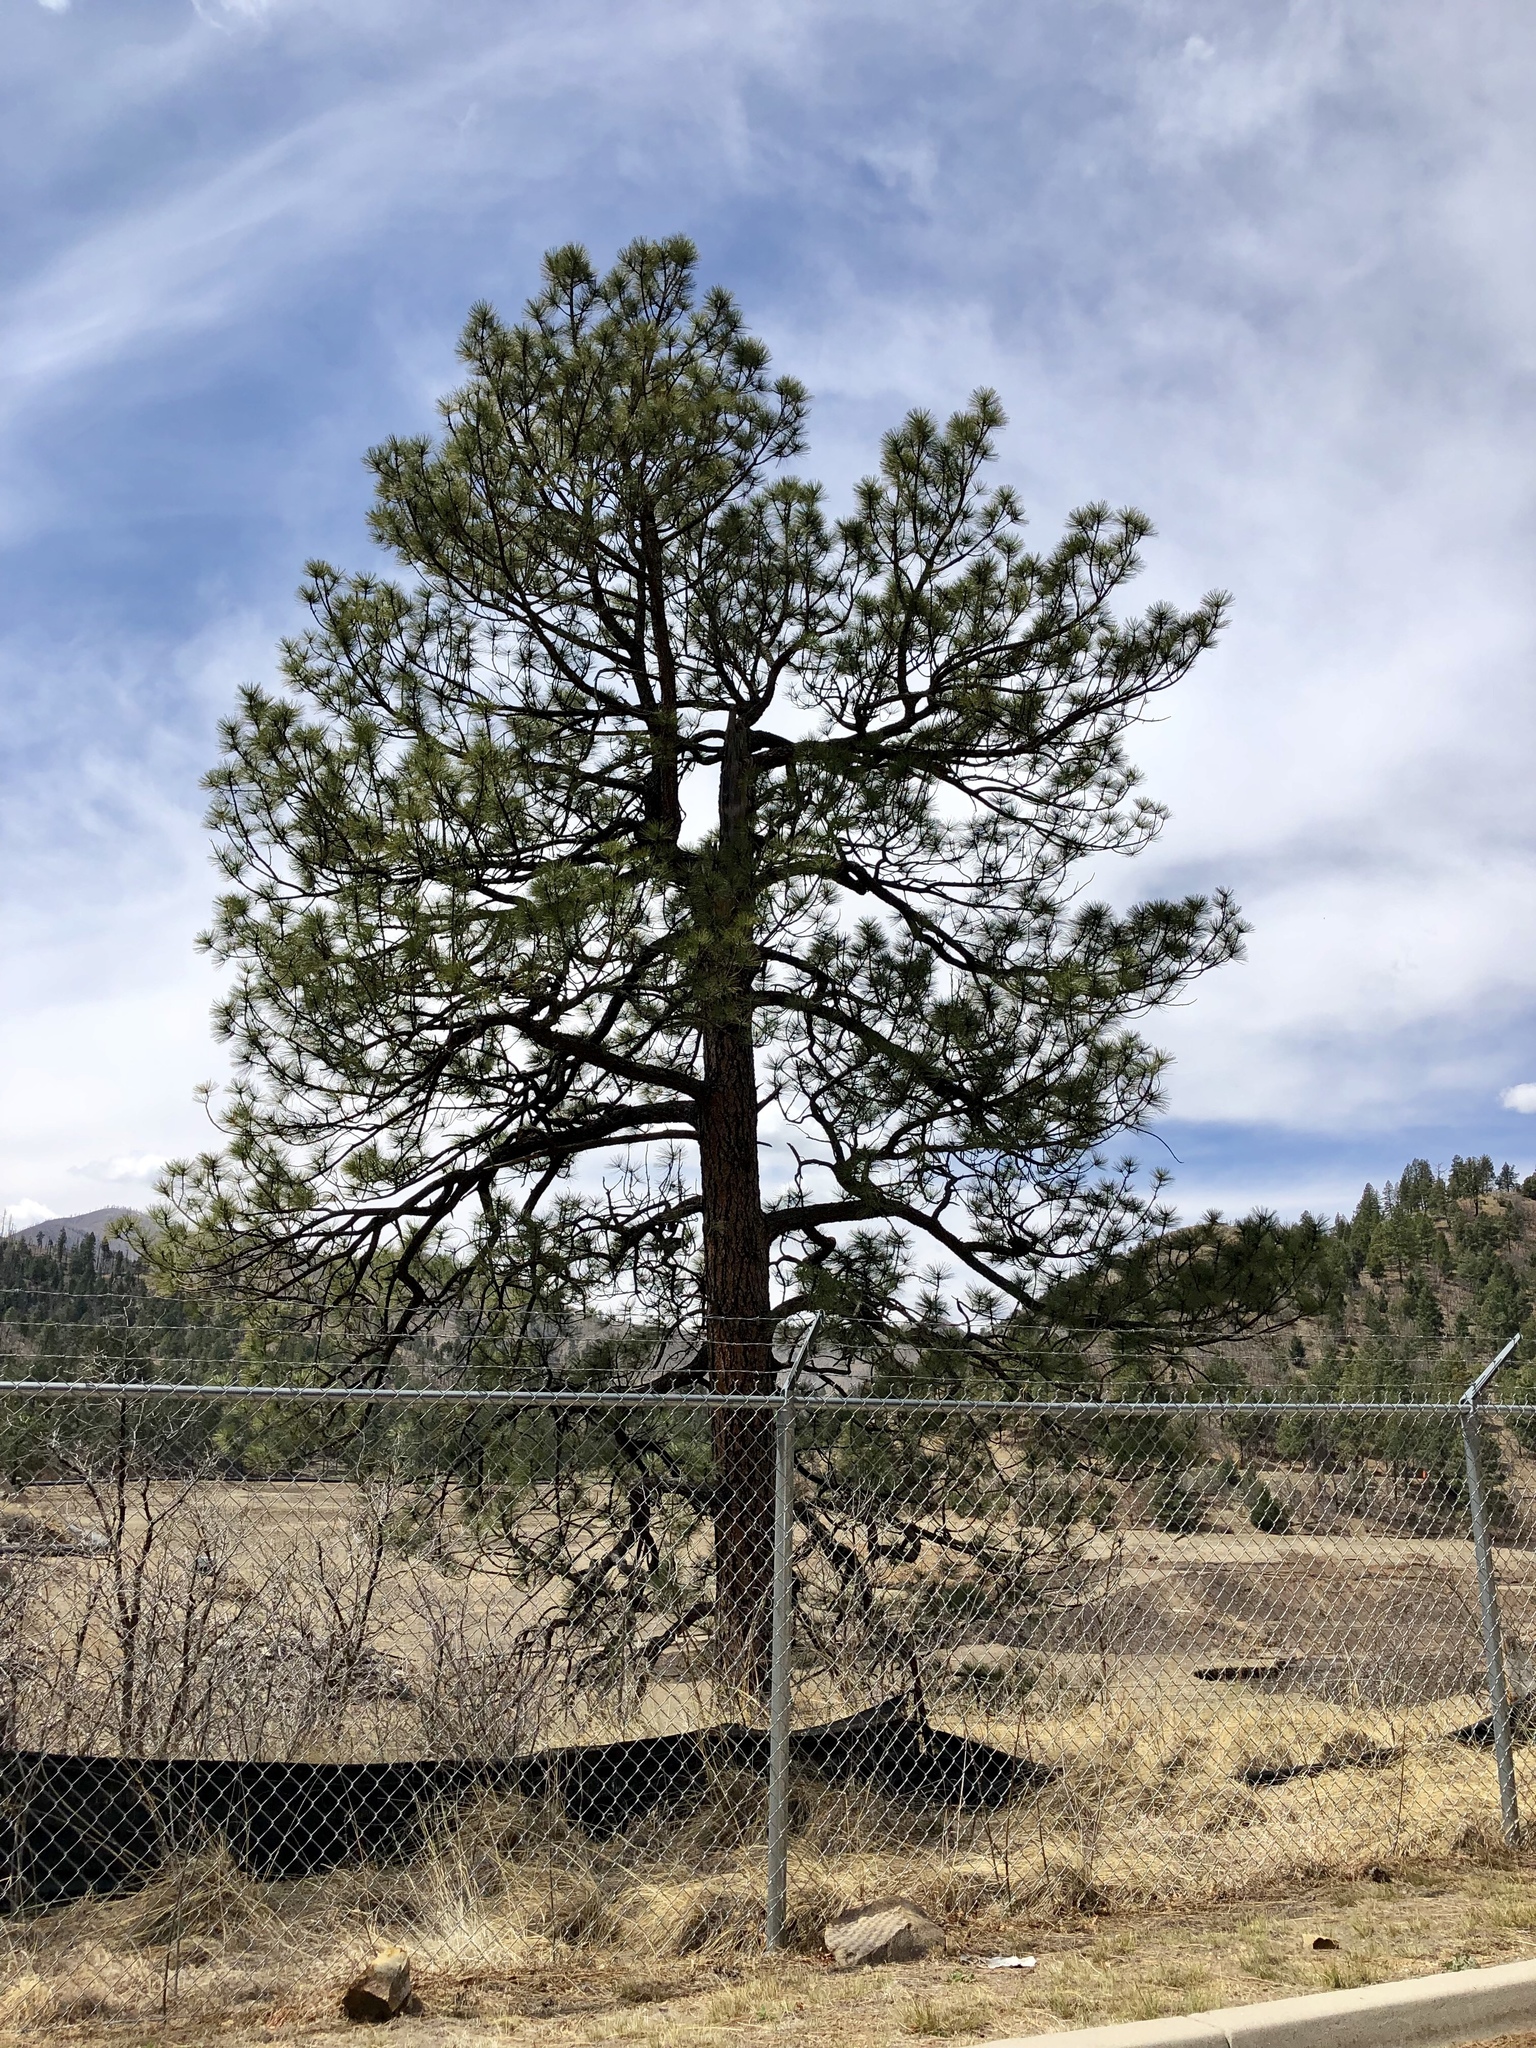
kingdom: Plantae
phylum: Tracheophyta
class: Pinopsida
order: Pinales
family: Pinaceae
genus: Pinus
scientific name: Pinus ponderosa
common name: Western yellow-pine
